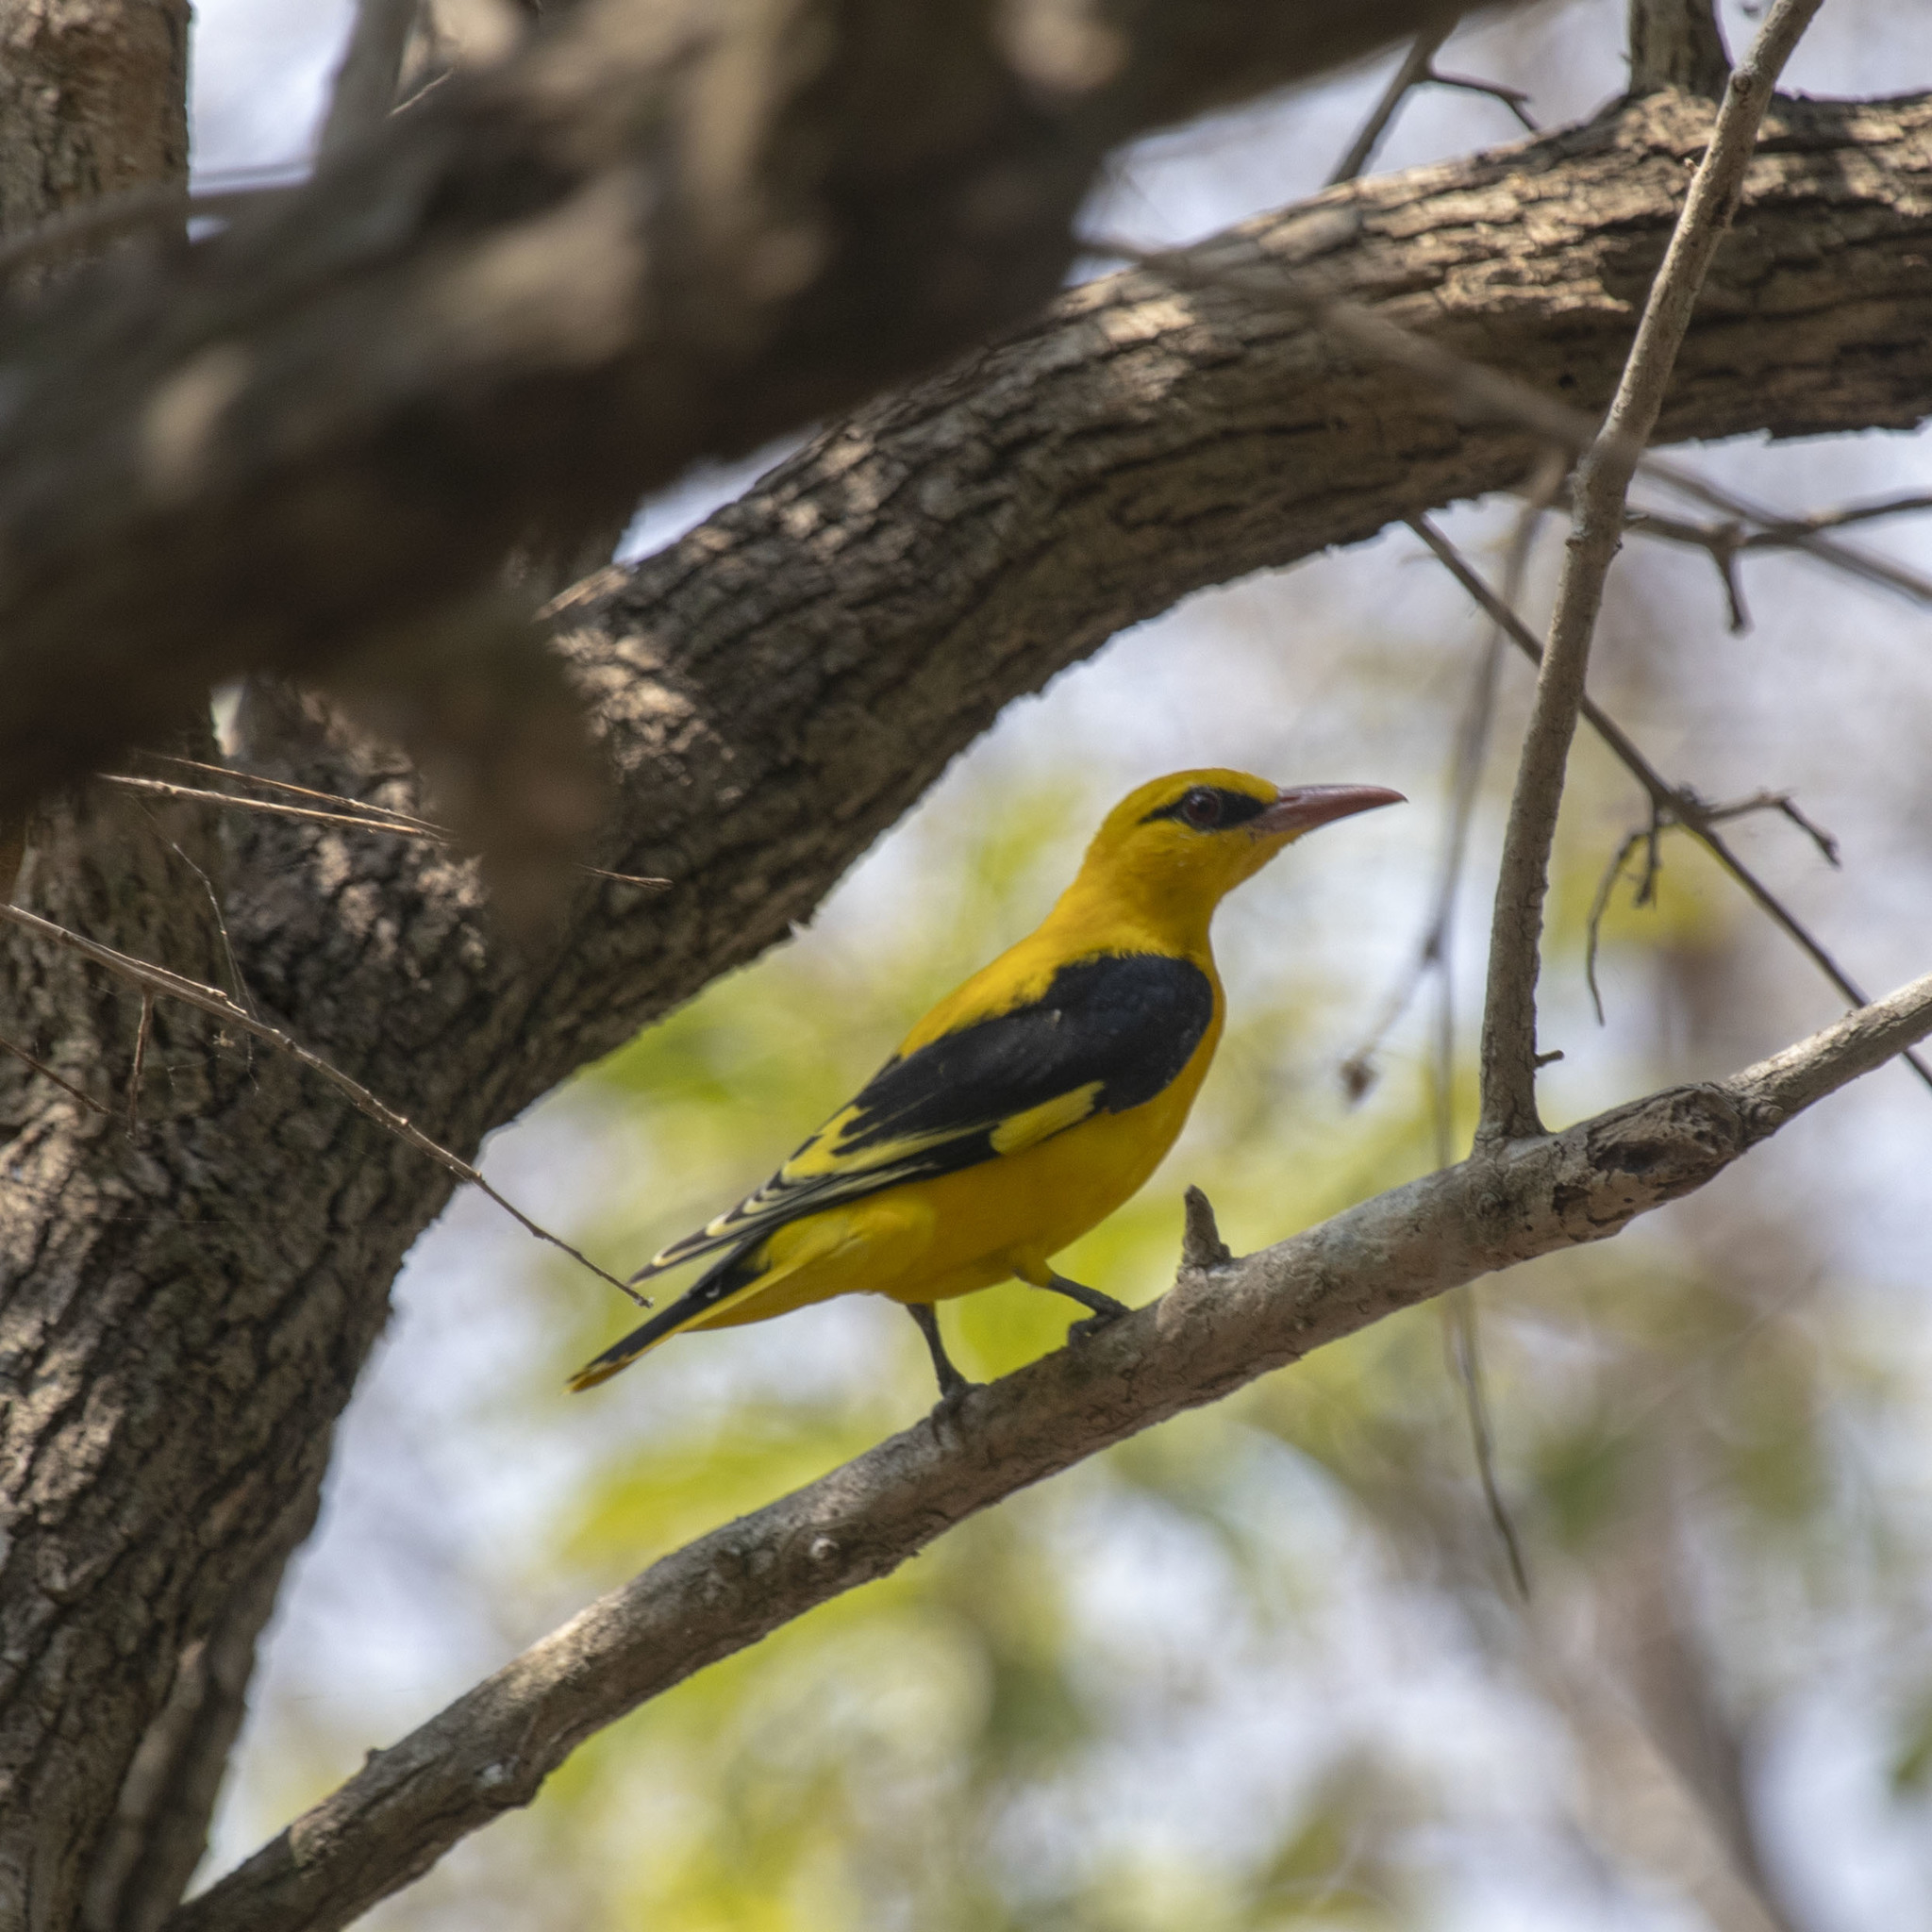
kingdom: Animalia
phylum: Chordata
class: Aves
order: Passeriformes
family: Oriolidae
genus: Oriolus
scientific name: Oriolus kundoo
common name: Indian golden oriole
